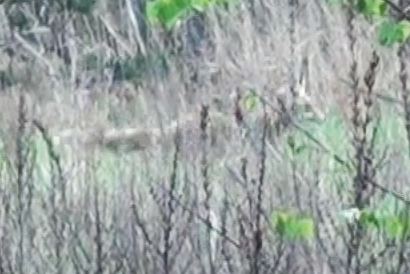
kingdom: Animalia
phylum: Chordata
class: Mammalia
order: Carnivora
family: Canidae
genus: Vulpes
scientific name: Vulpes vulpes
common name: Red fox
